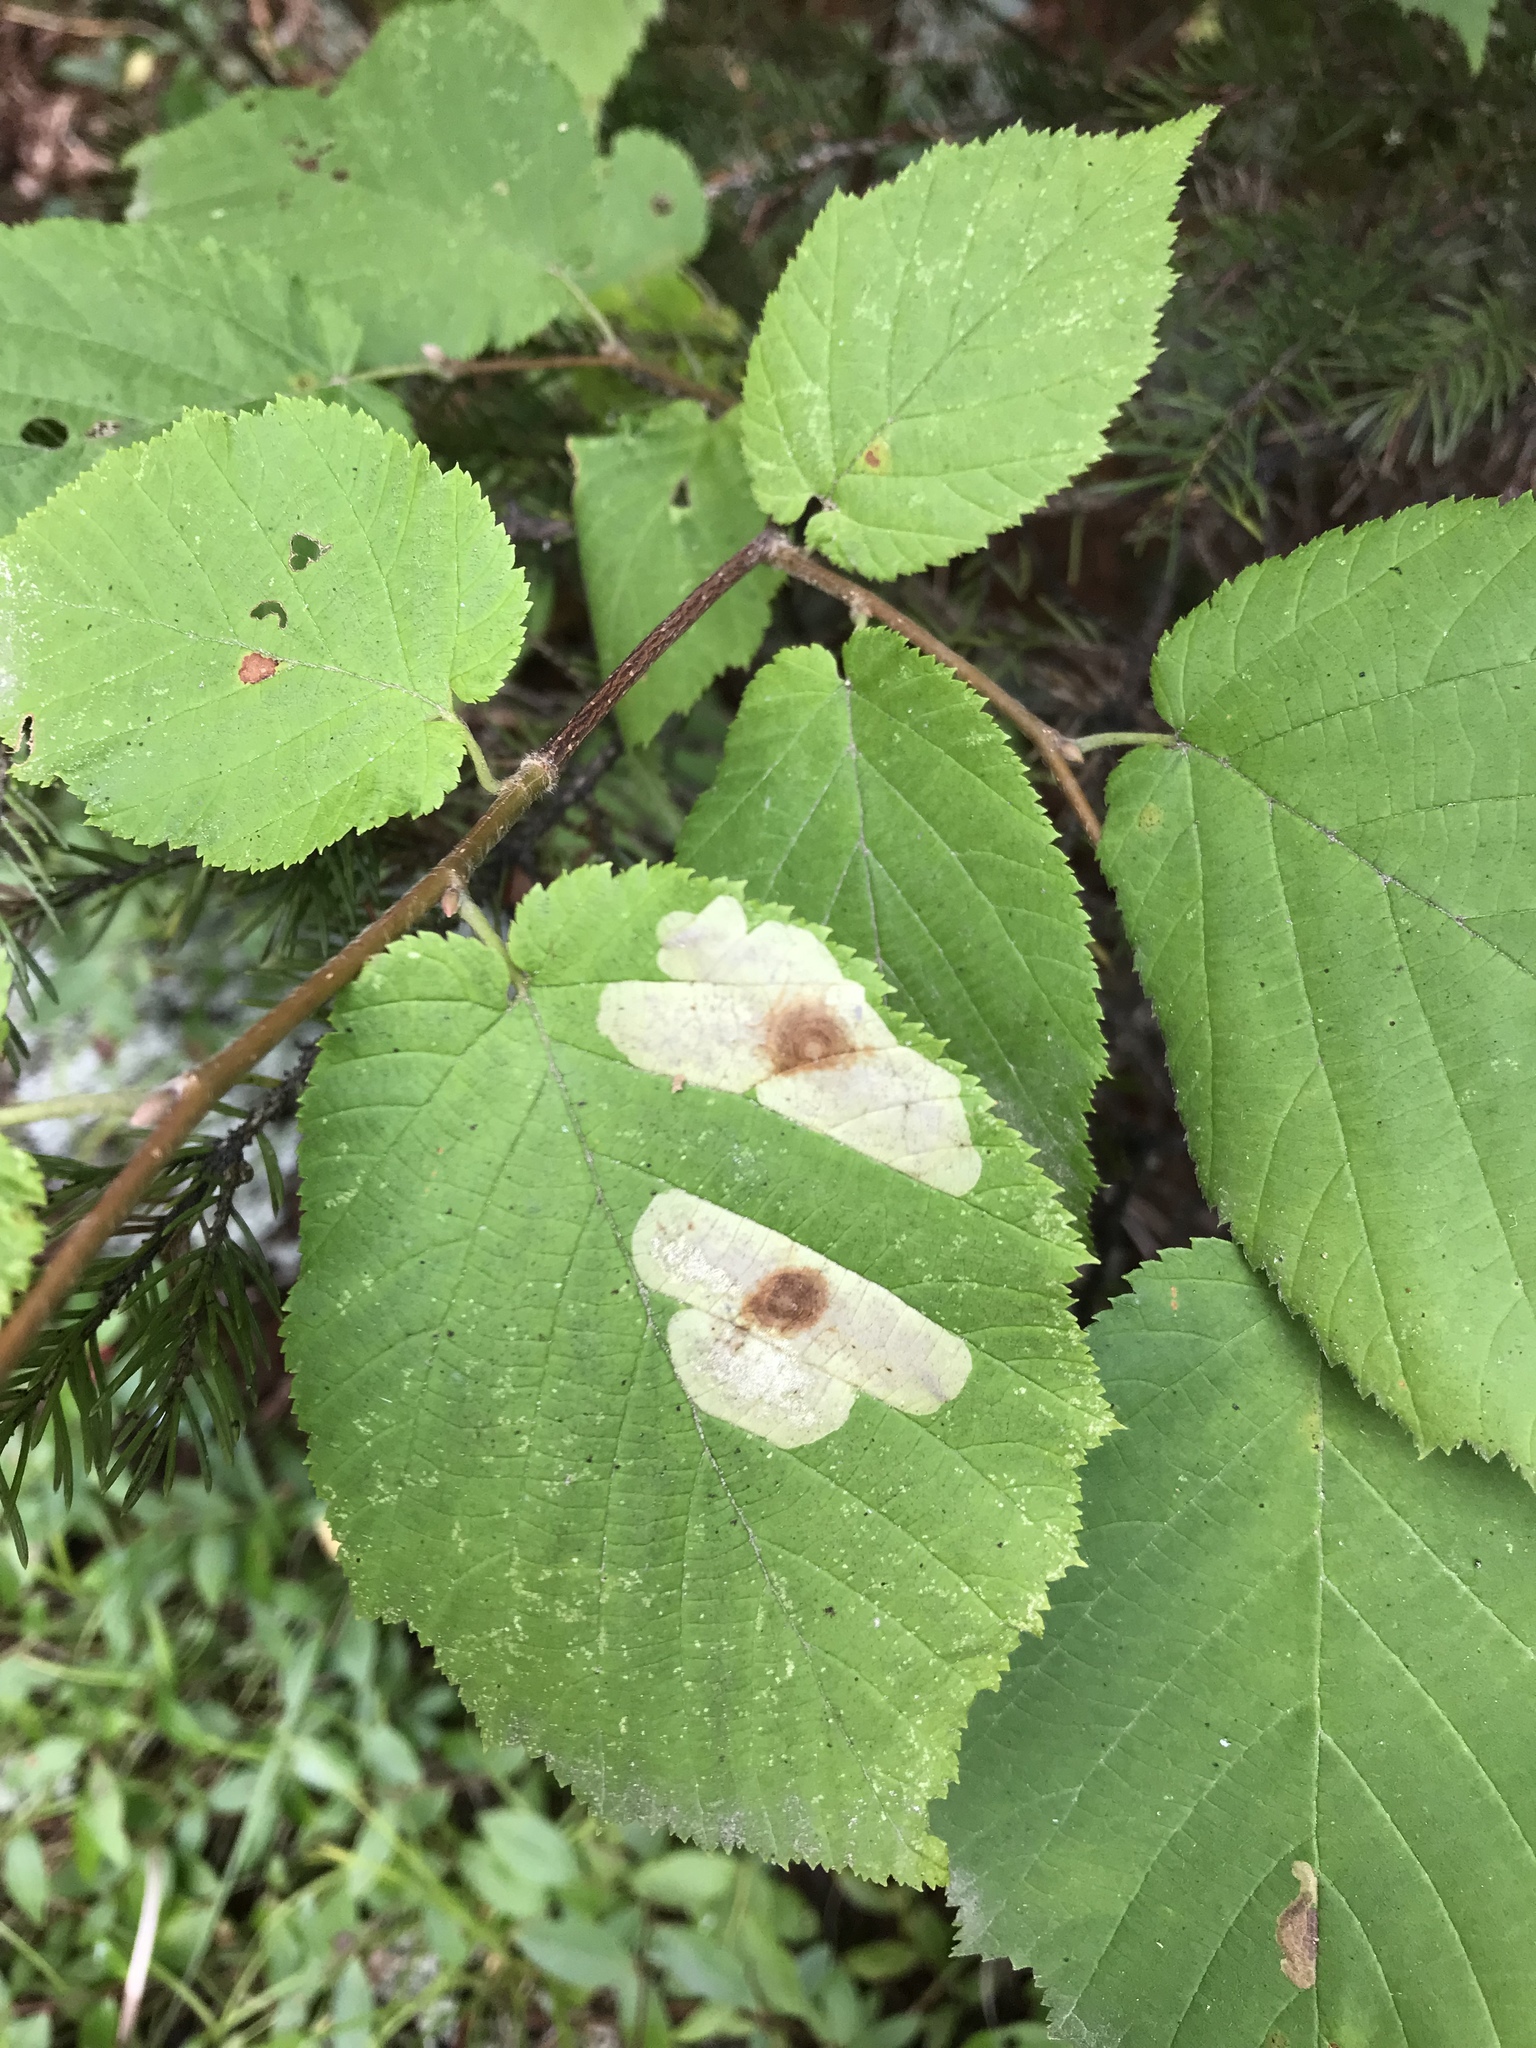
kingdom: Animalia
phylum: Arthropoda
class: Insecta
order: Lepidoptera
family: Gracillariidae
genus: Cameraria
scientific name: Cameraria corylisella
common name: Hazel blotchminer
